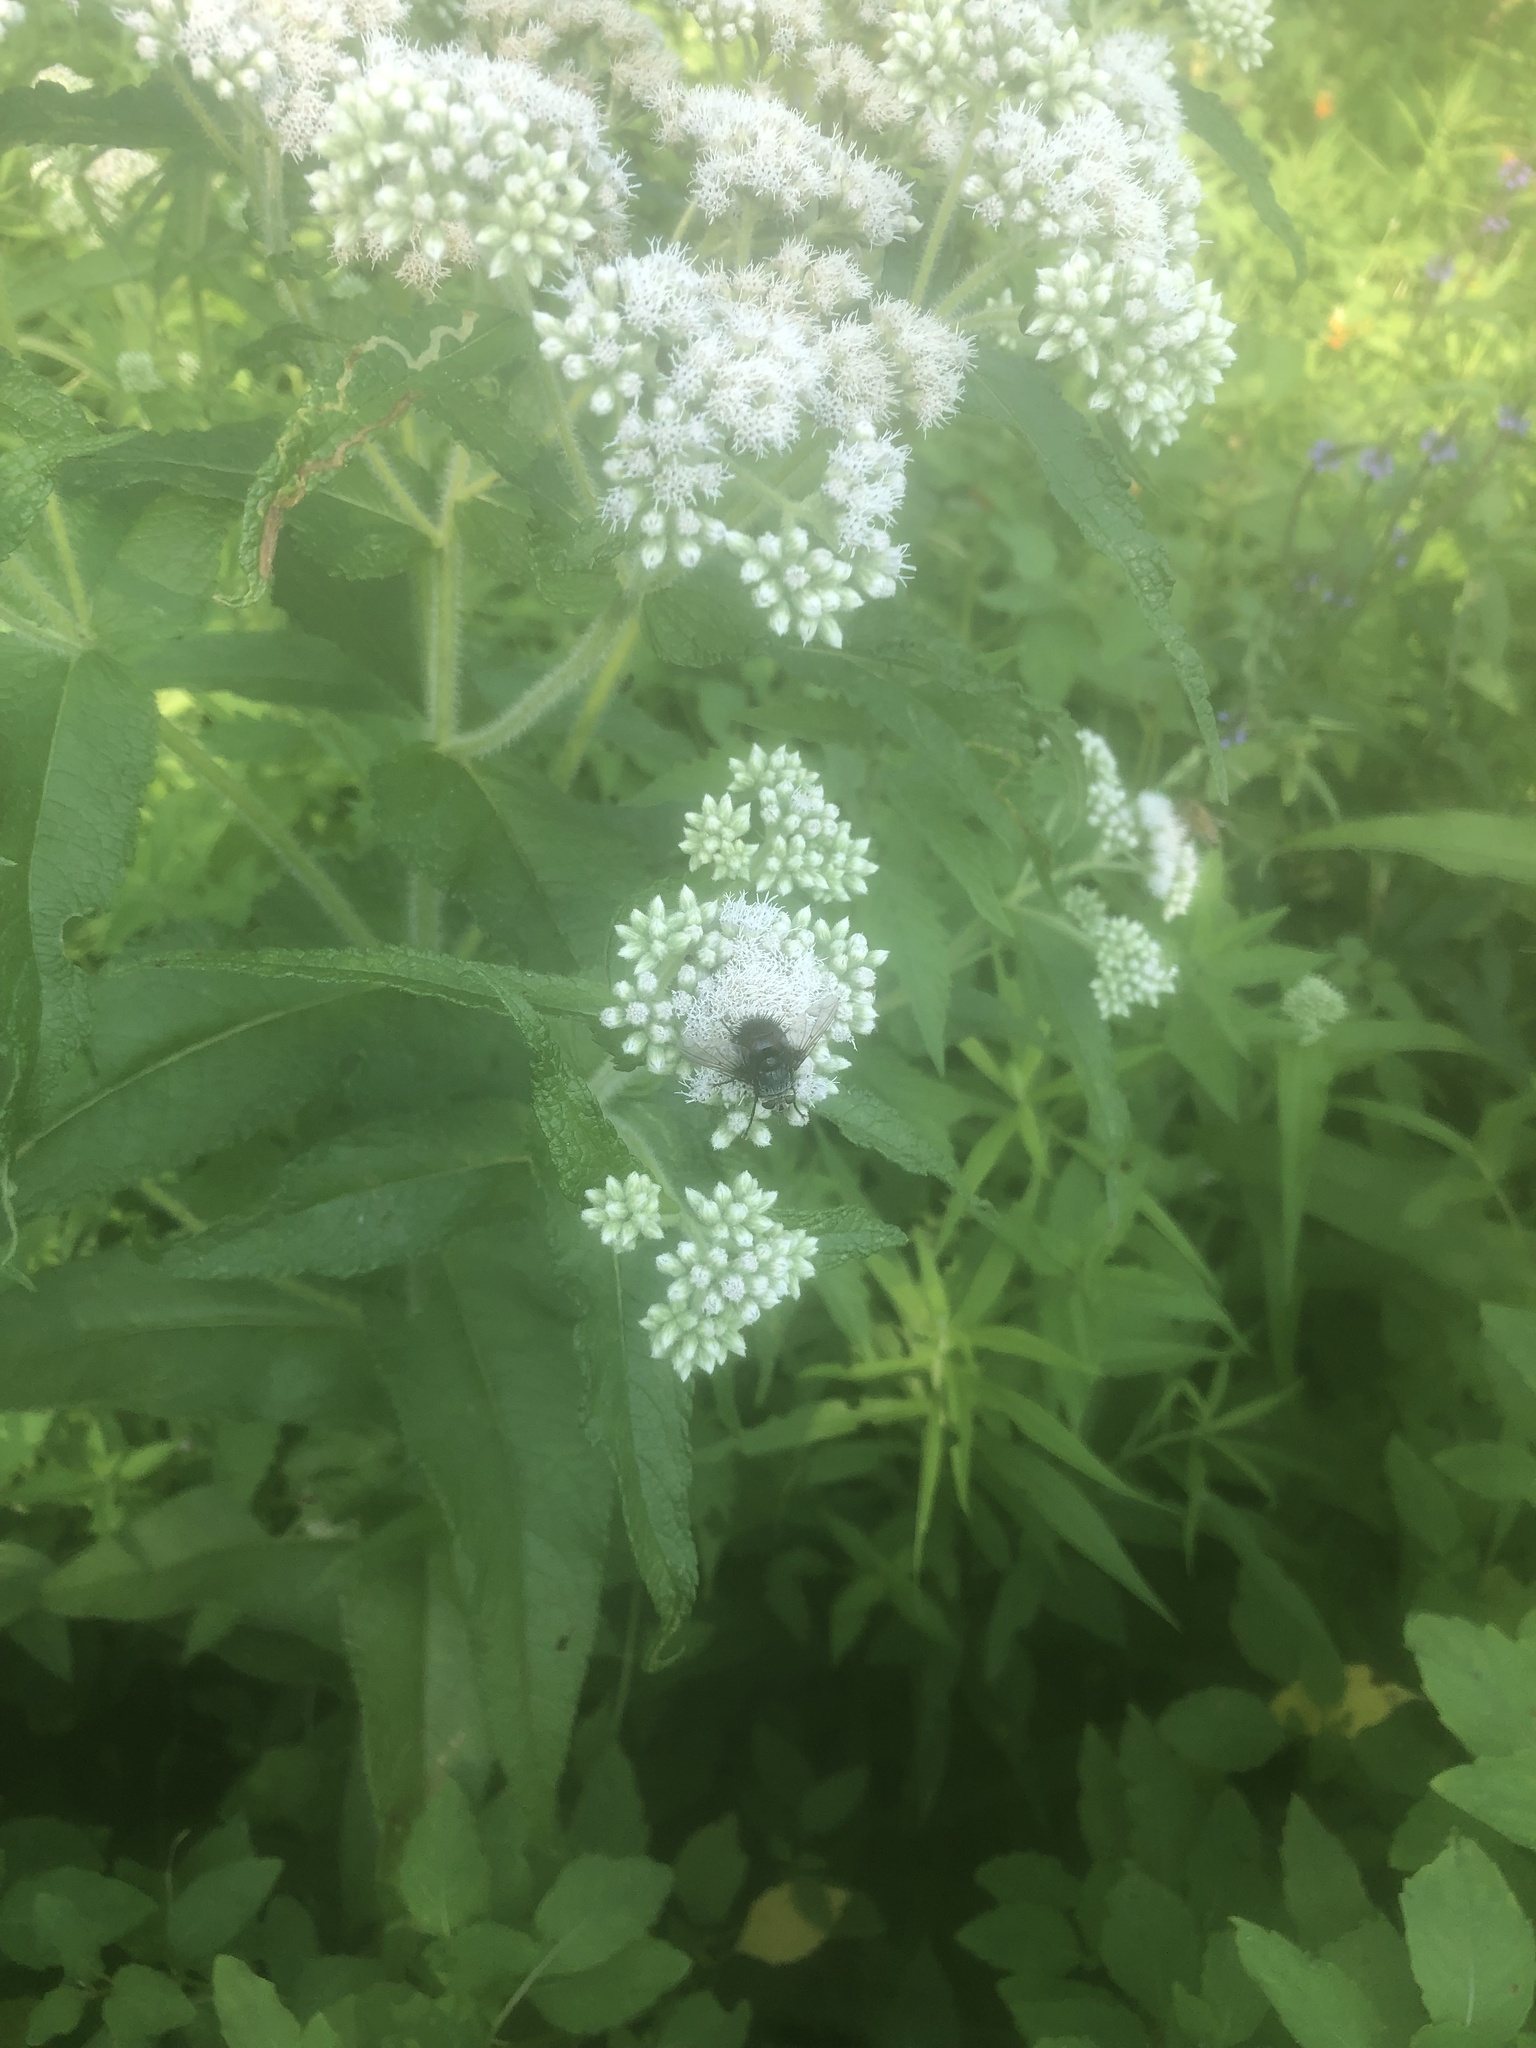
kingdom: Animalia
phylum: Arthropoda
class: Insecta
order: Diptera
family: Tachinidae
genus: Juriniopsis
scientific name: Juriniopsis adusta
